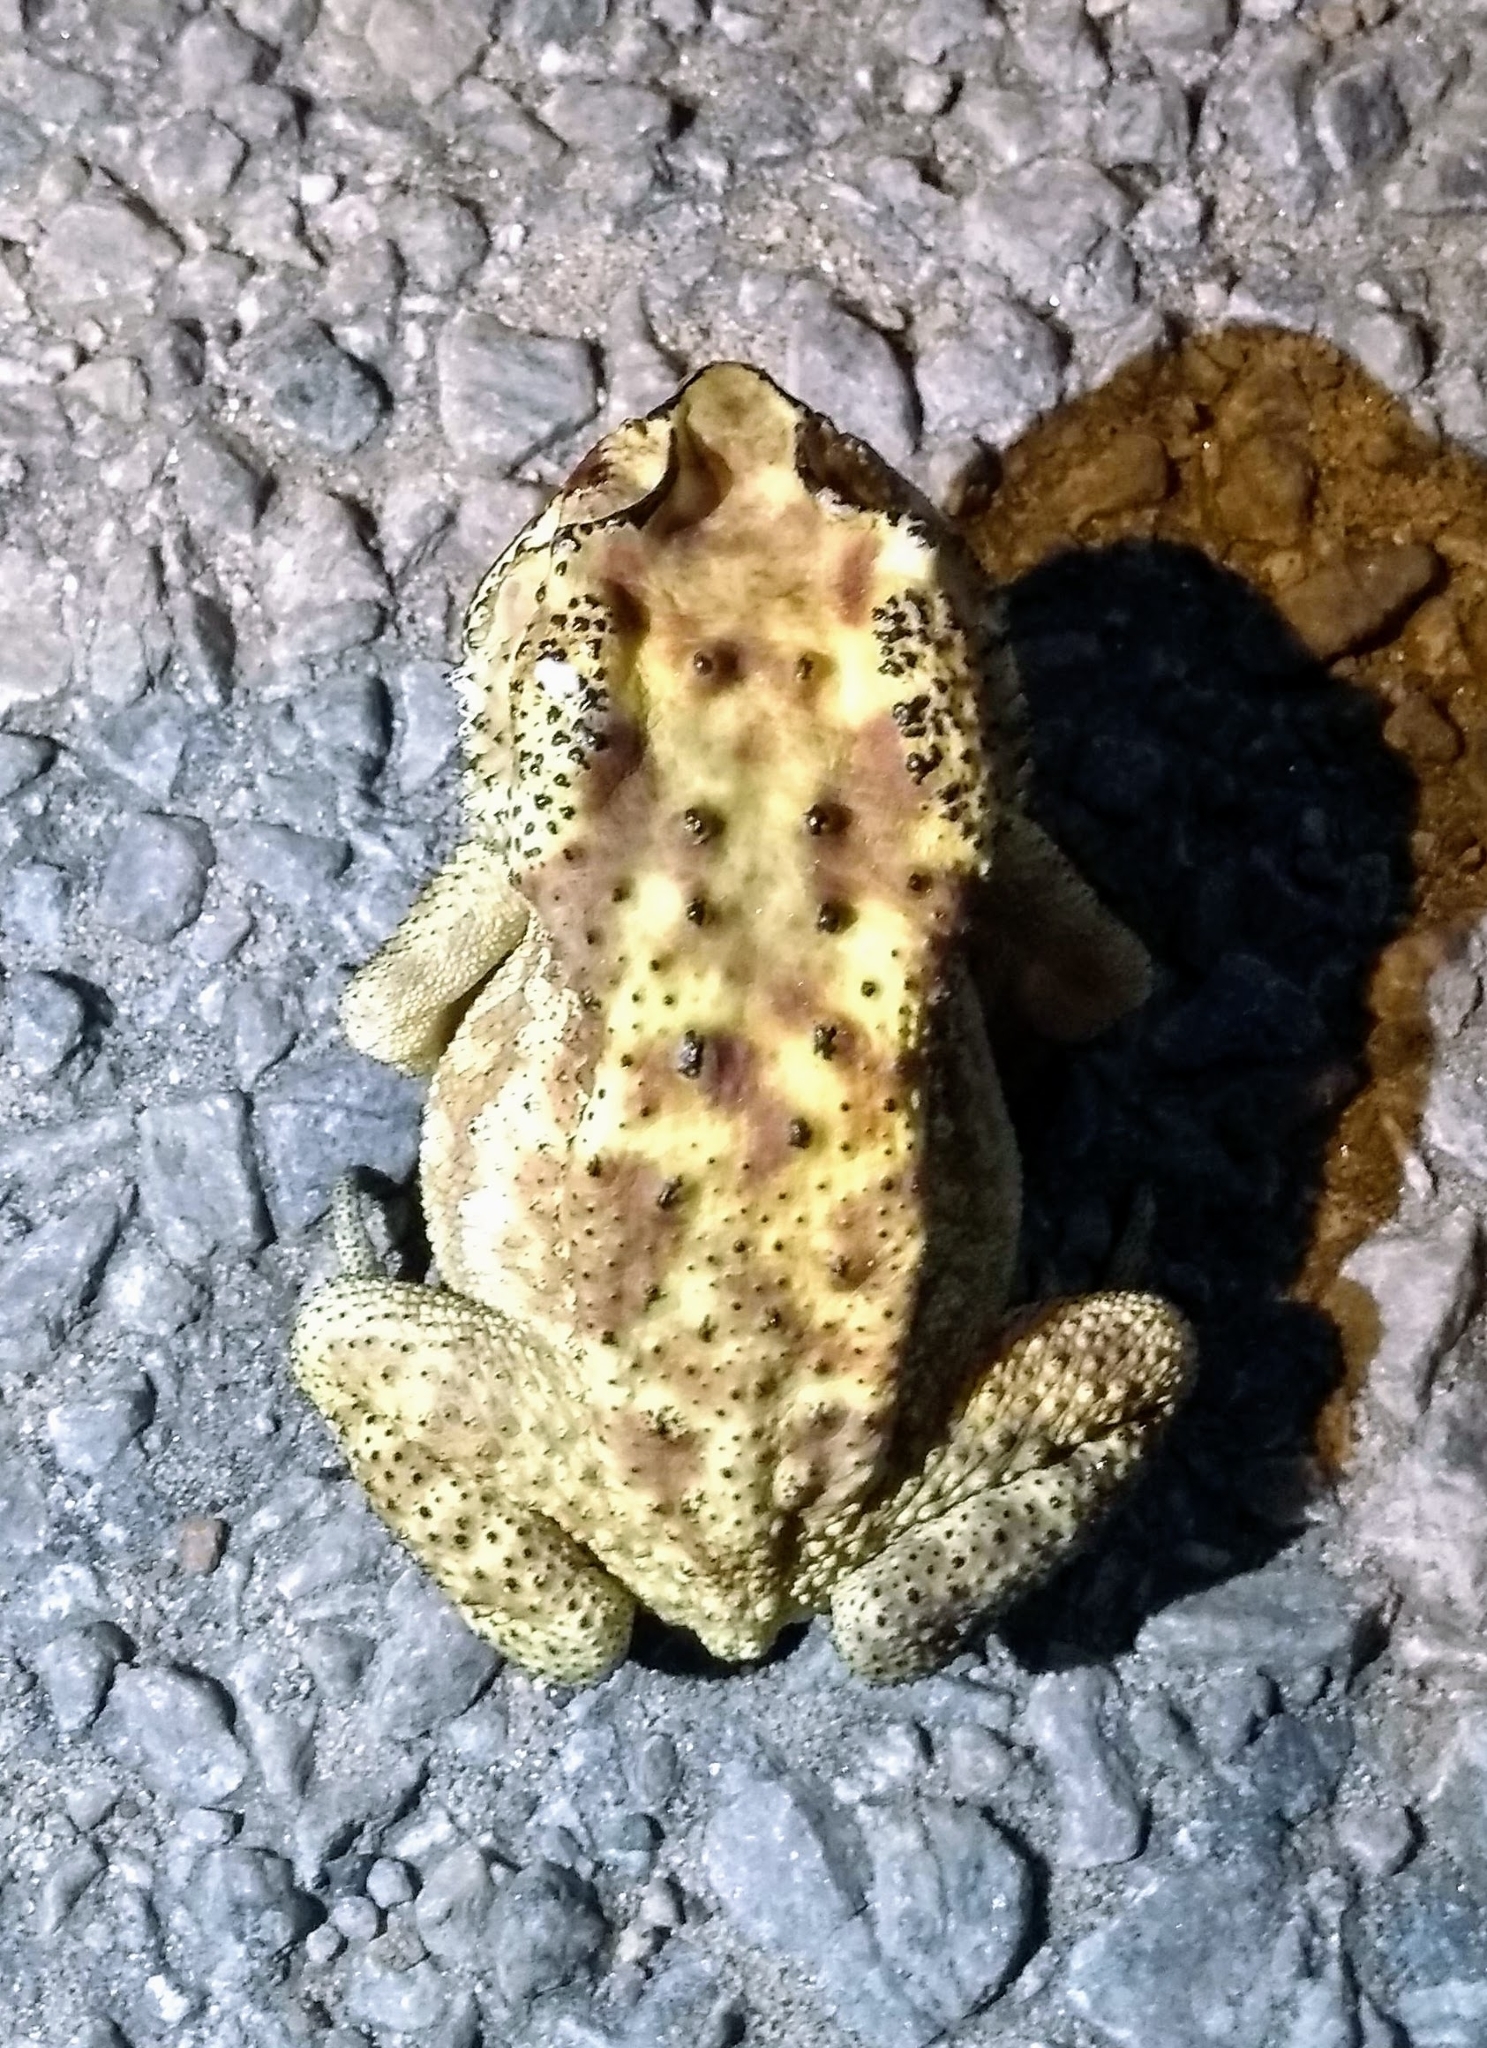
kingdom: Animalia
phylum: Chordata
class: Amphibia
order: Anura
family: Bufonidae
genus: Duttaphrynus
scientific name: Duttaphrynus melanostictus
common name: Common sunda toad
